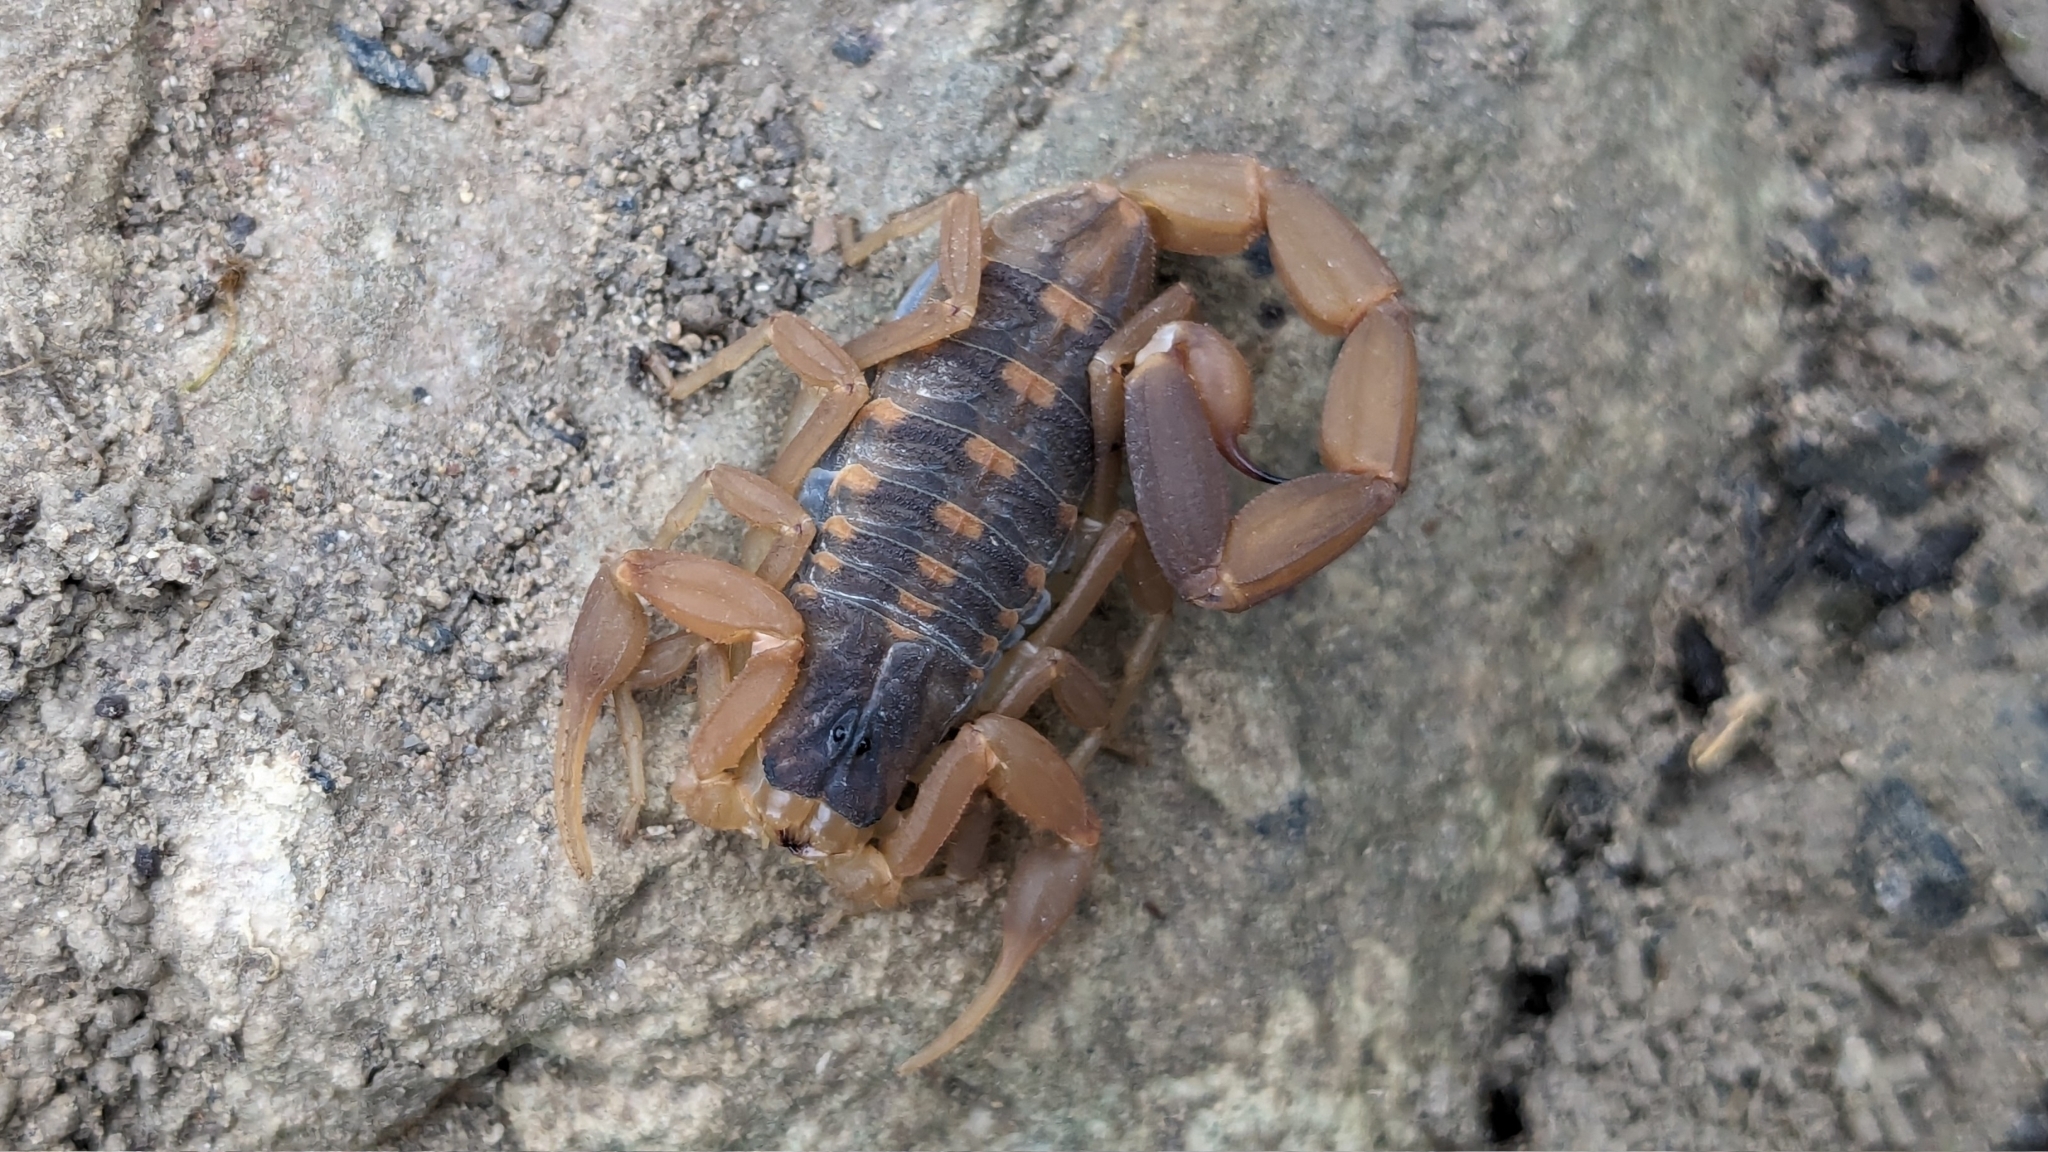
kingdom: Animalia
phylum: Arthropoda
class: Arachnida
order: Scorpiones
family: Buthidae
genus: Centruroides
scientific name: Centruroides vittatus
